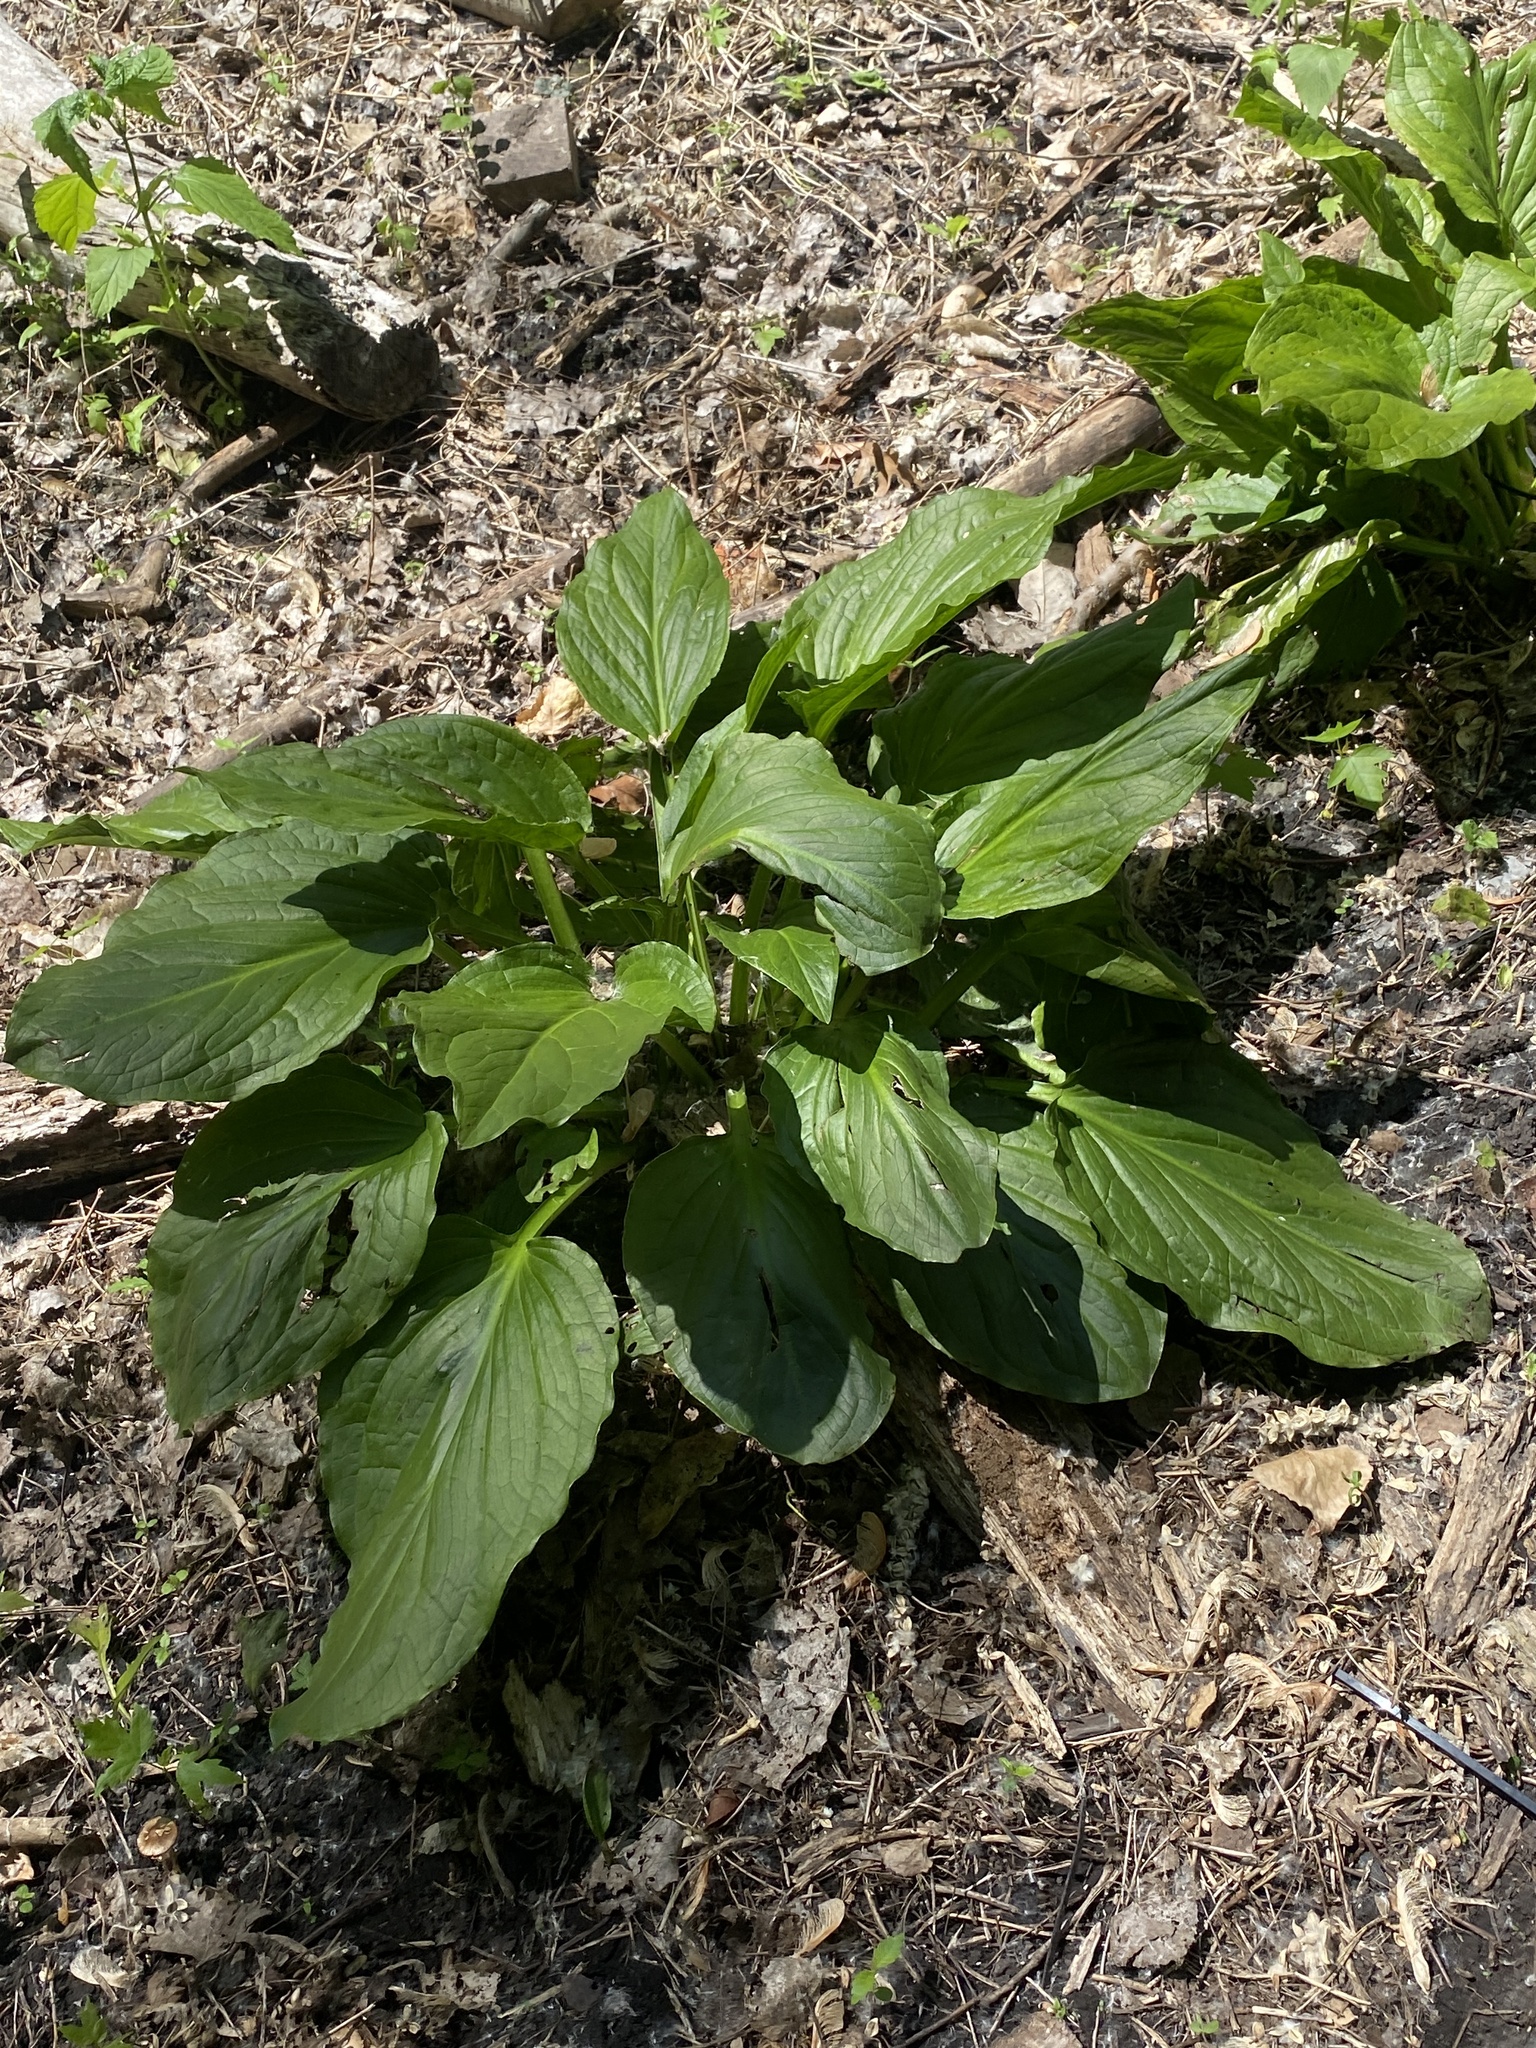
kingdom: Plantae
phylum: Tracheophyta
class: Liliopsida
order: Alismatales
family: Araceae
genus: Symplocarpus
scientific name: Symplocarpus foetidus
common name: Eastern skunk cabbage
